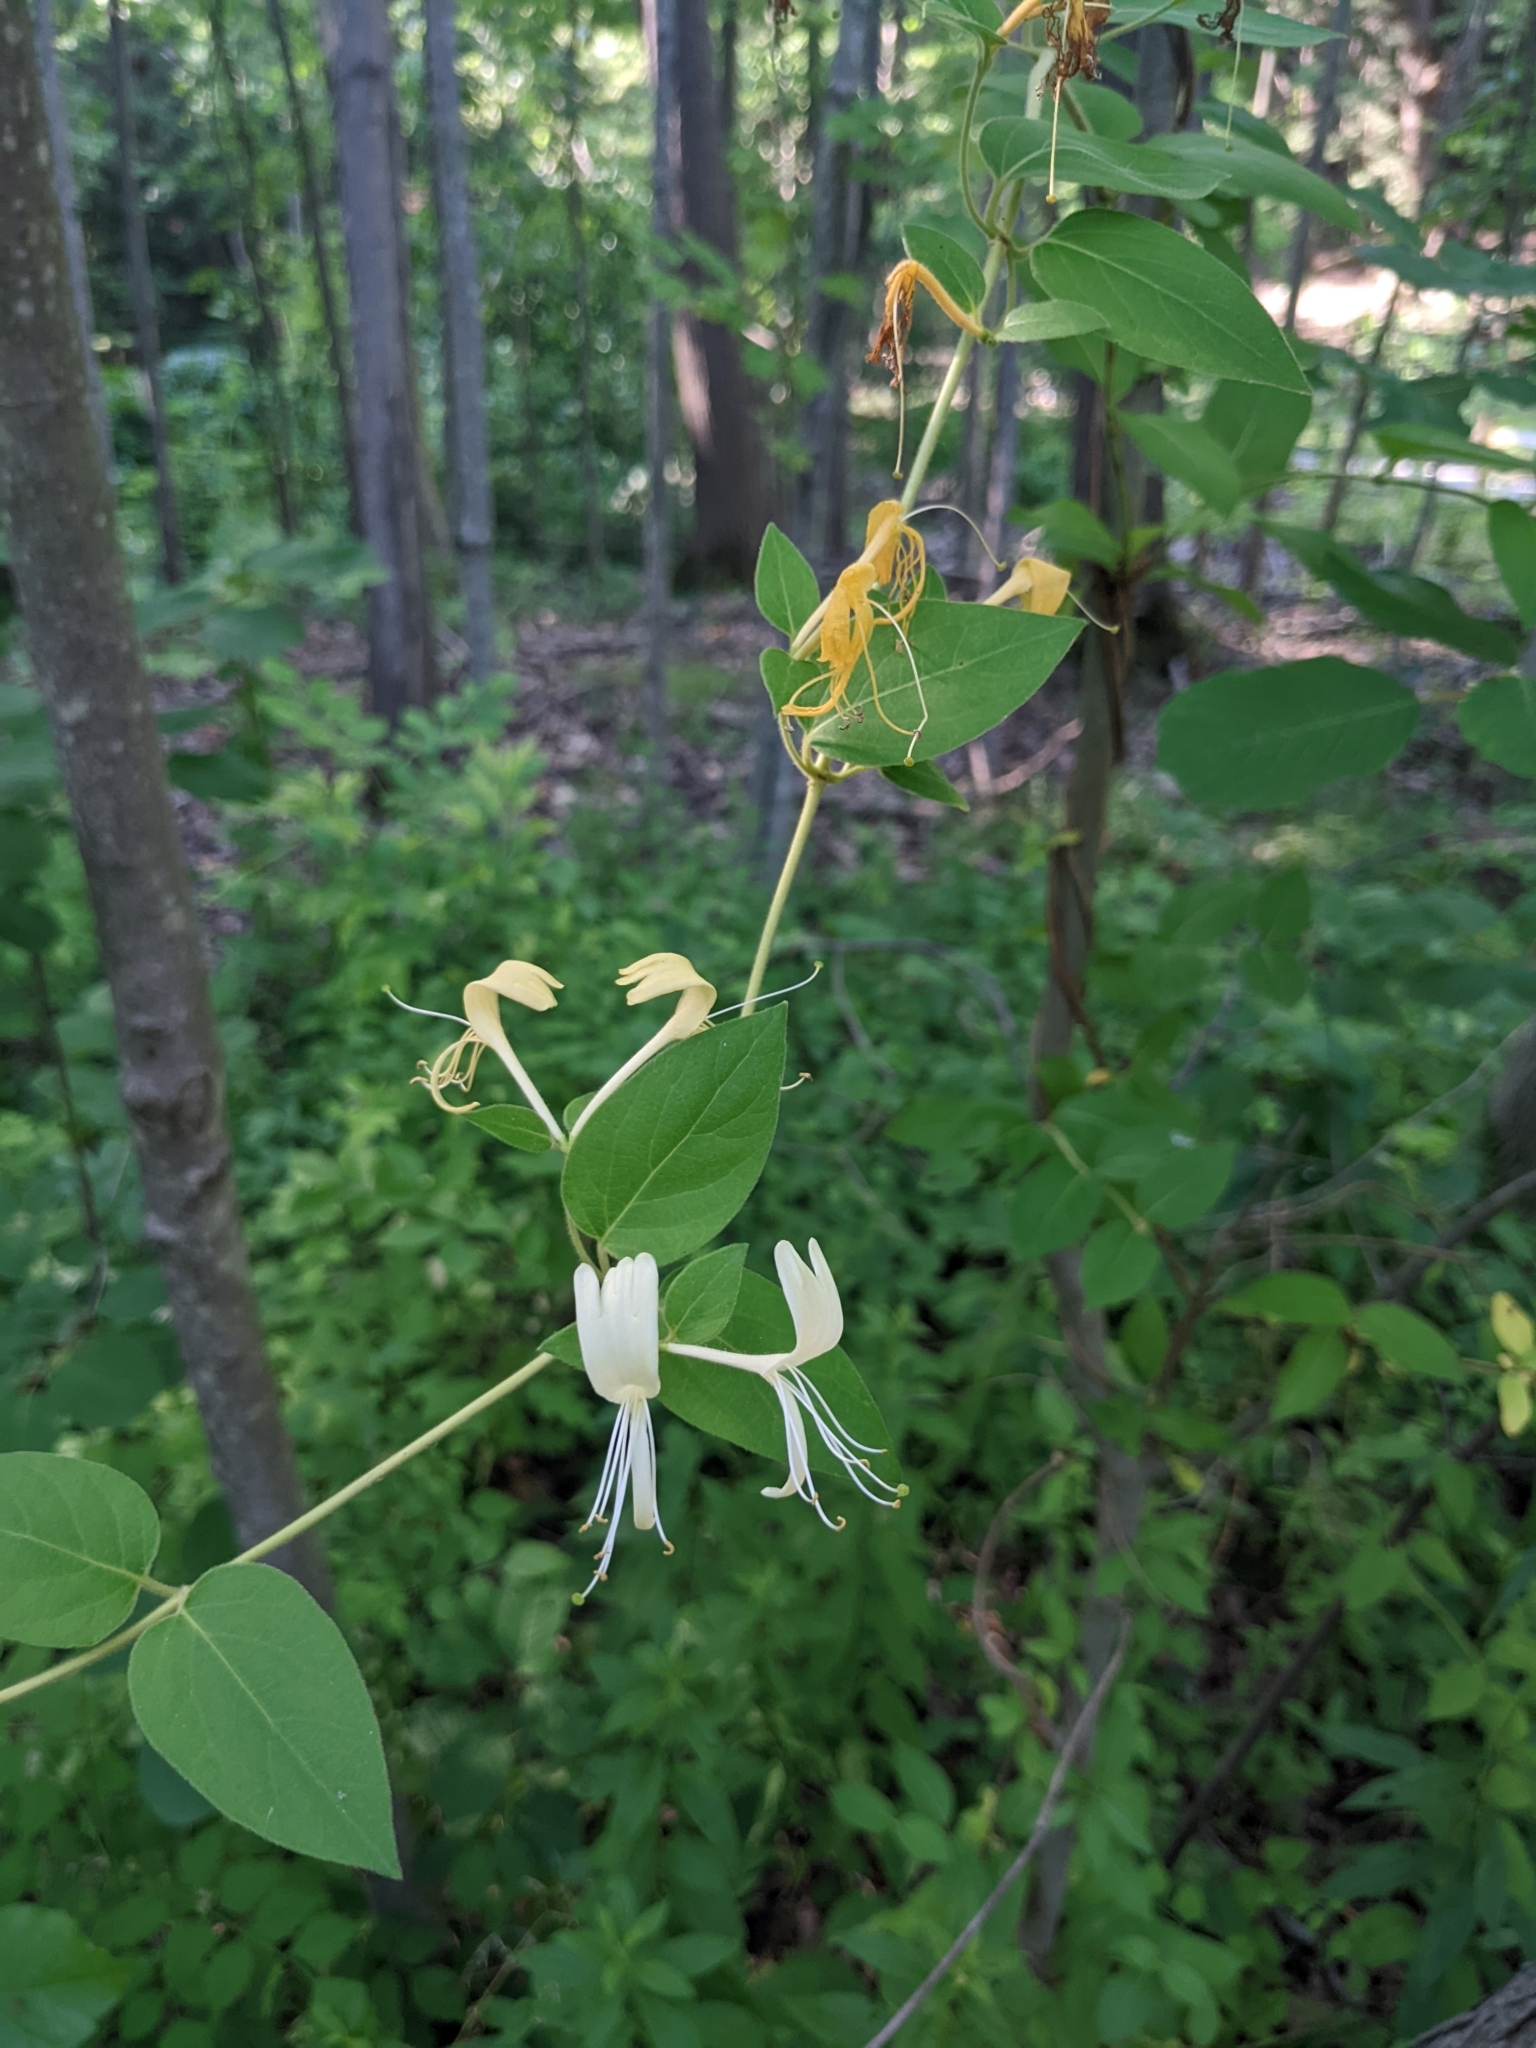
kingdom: Plantae
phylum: Tracheophyta
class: Magnoliopsida
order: Dipsacales
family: Caprifoliaceae
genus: Lonicera
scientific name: Lonicera japonica
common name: Japanese honeysuckle
